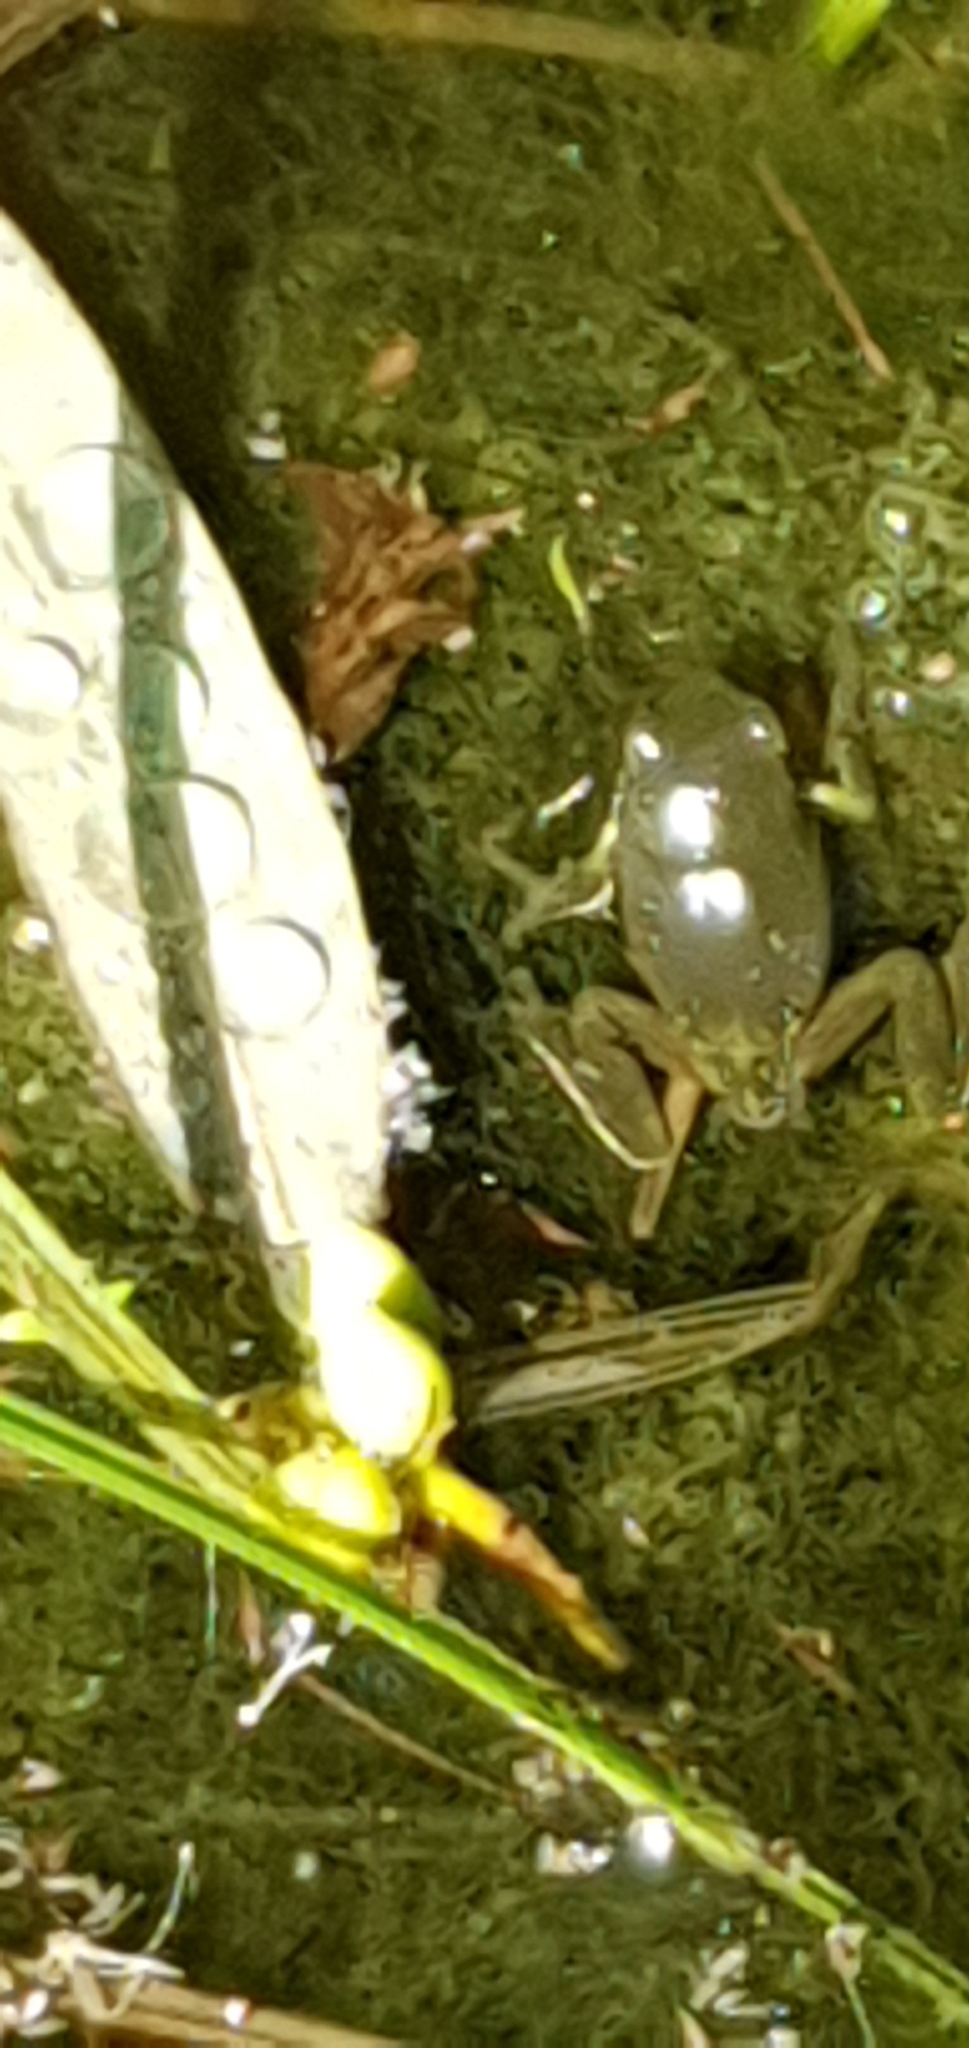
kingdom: Animalia
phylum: Chordata
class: Amphibia
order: Anura
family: Pelodryadidae
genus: Ranoidea
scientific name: Ranoidea caerulea
